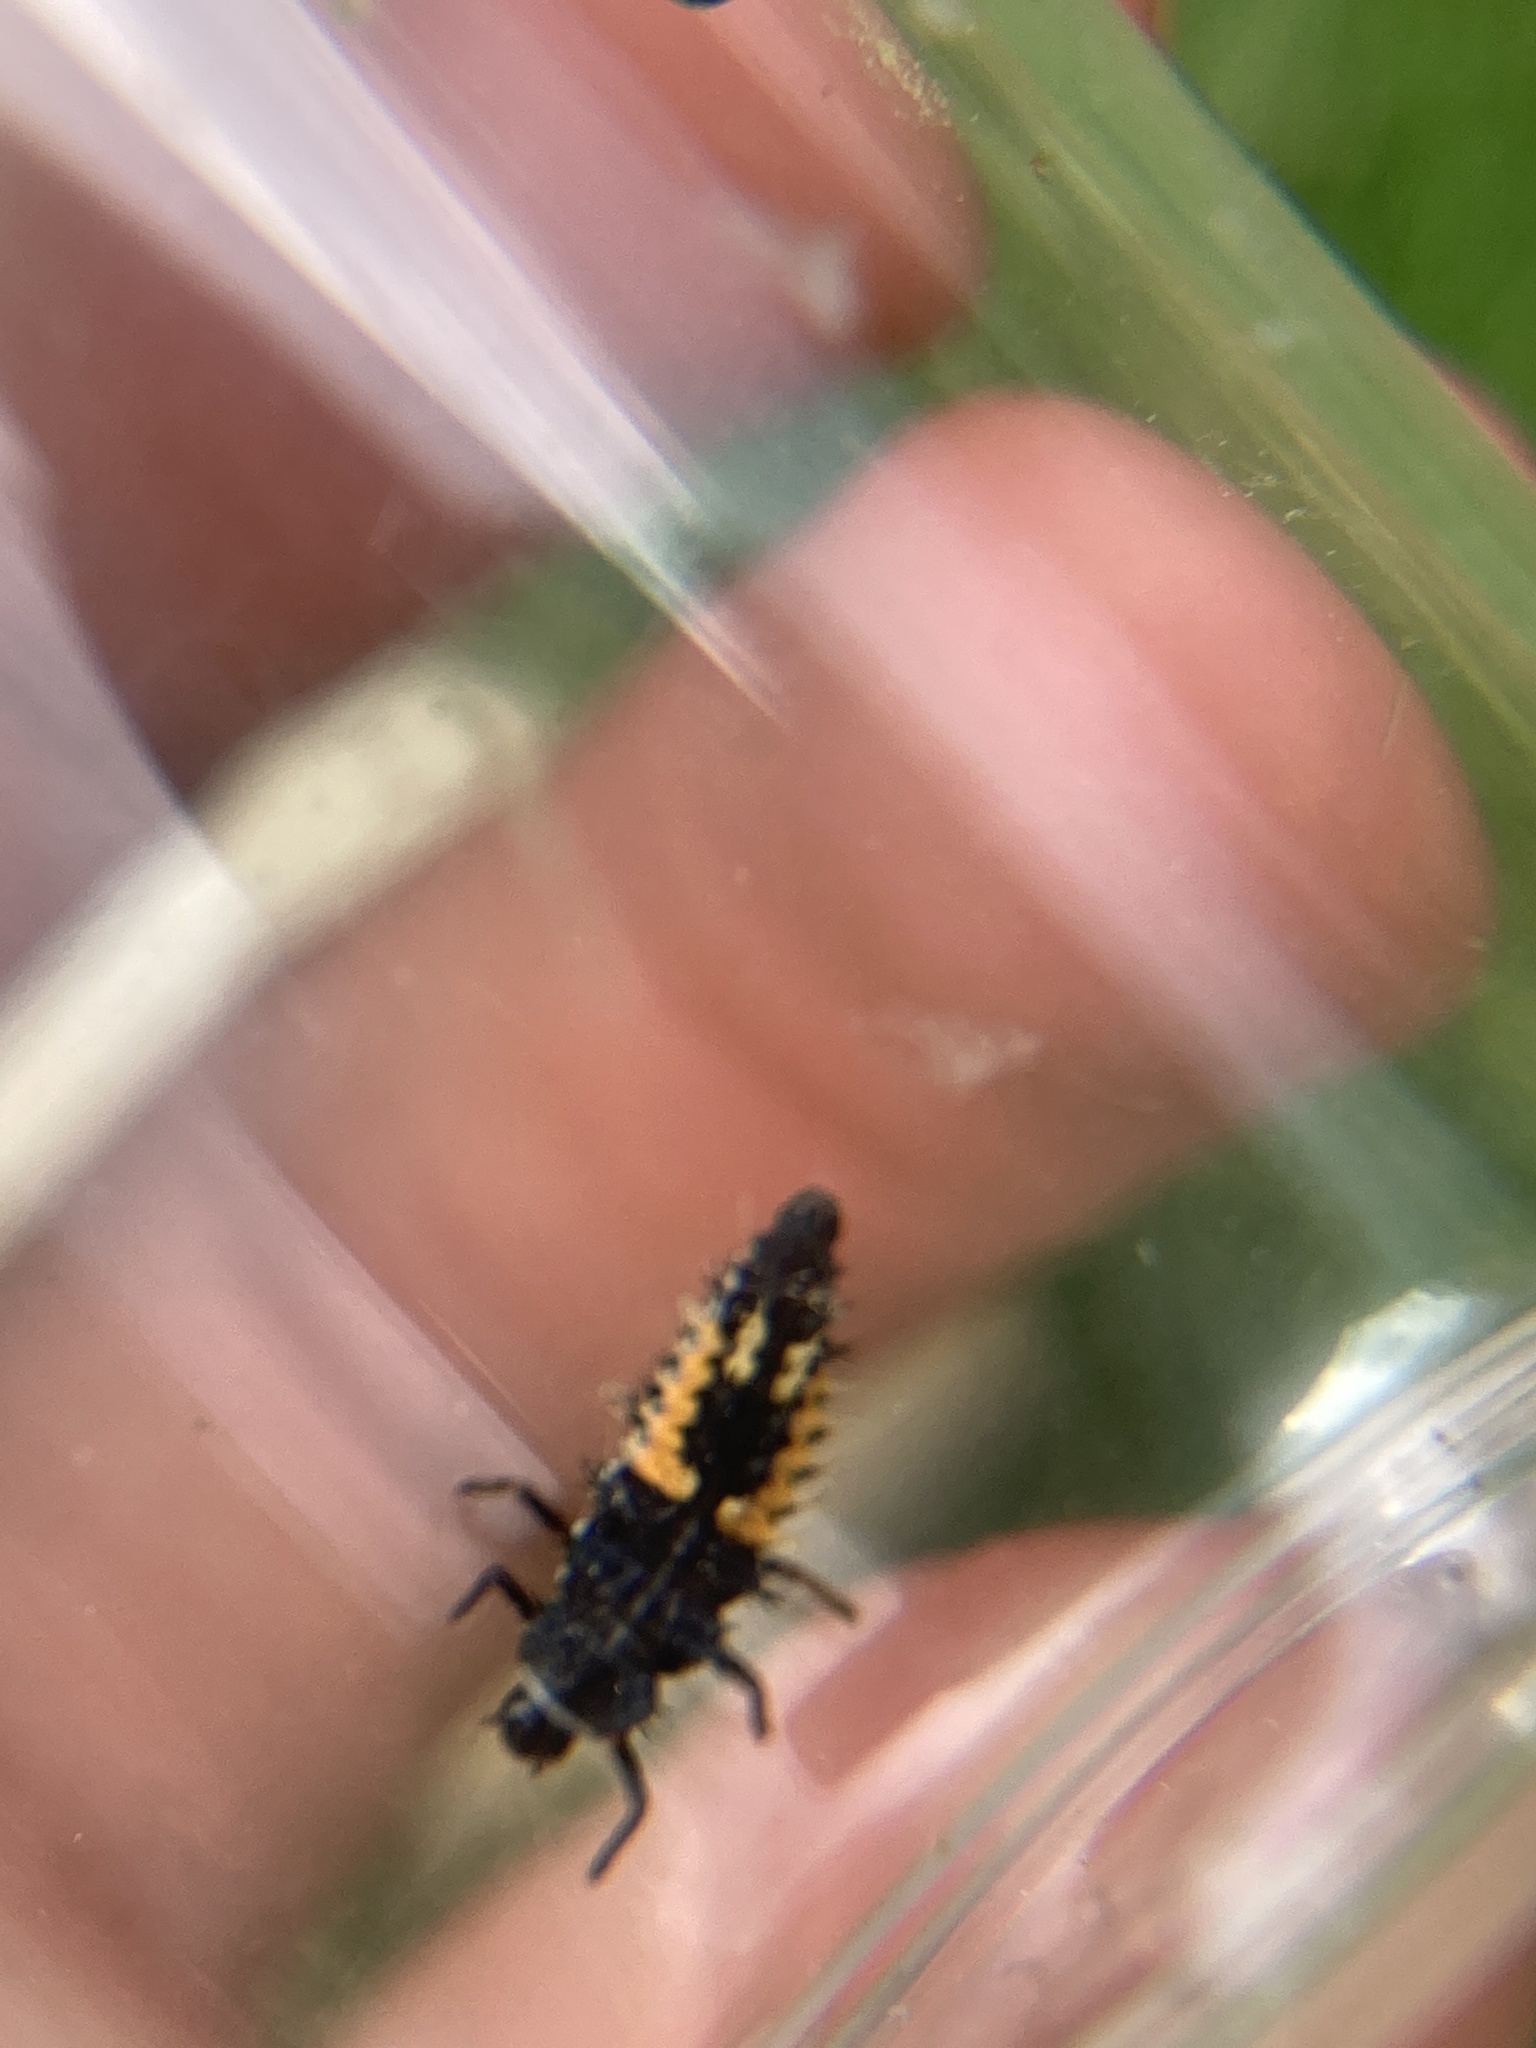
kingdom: Animalia
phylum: Arthropoda
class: Insecta
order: Coleoptera
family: Coccinellidae
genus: Harmonia
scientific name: Harmonia axyridis
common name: Harlequin ladybird
